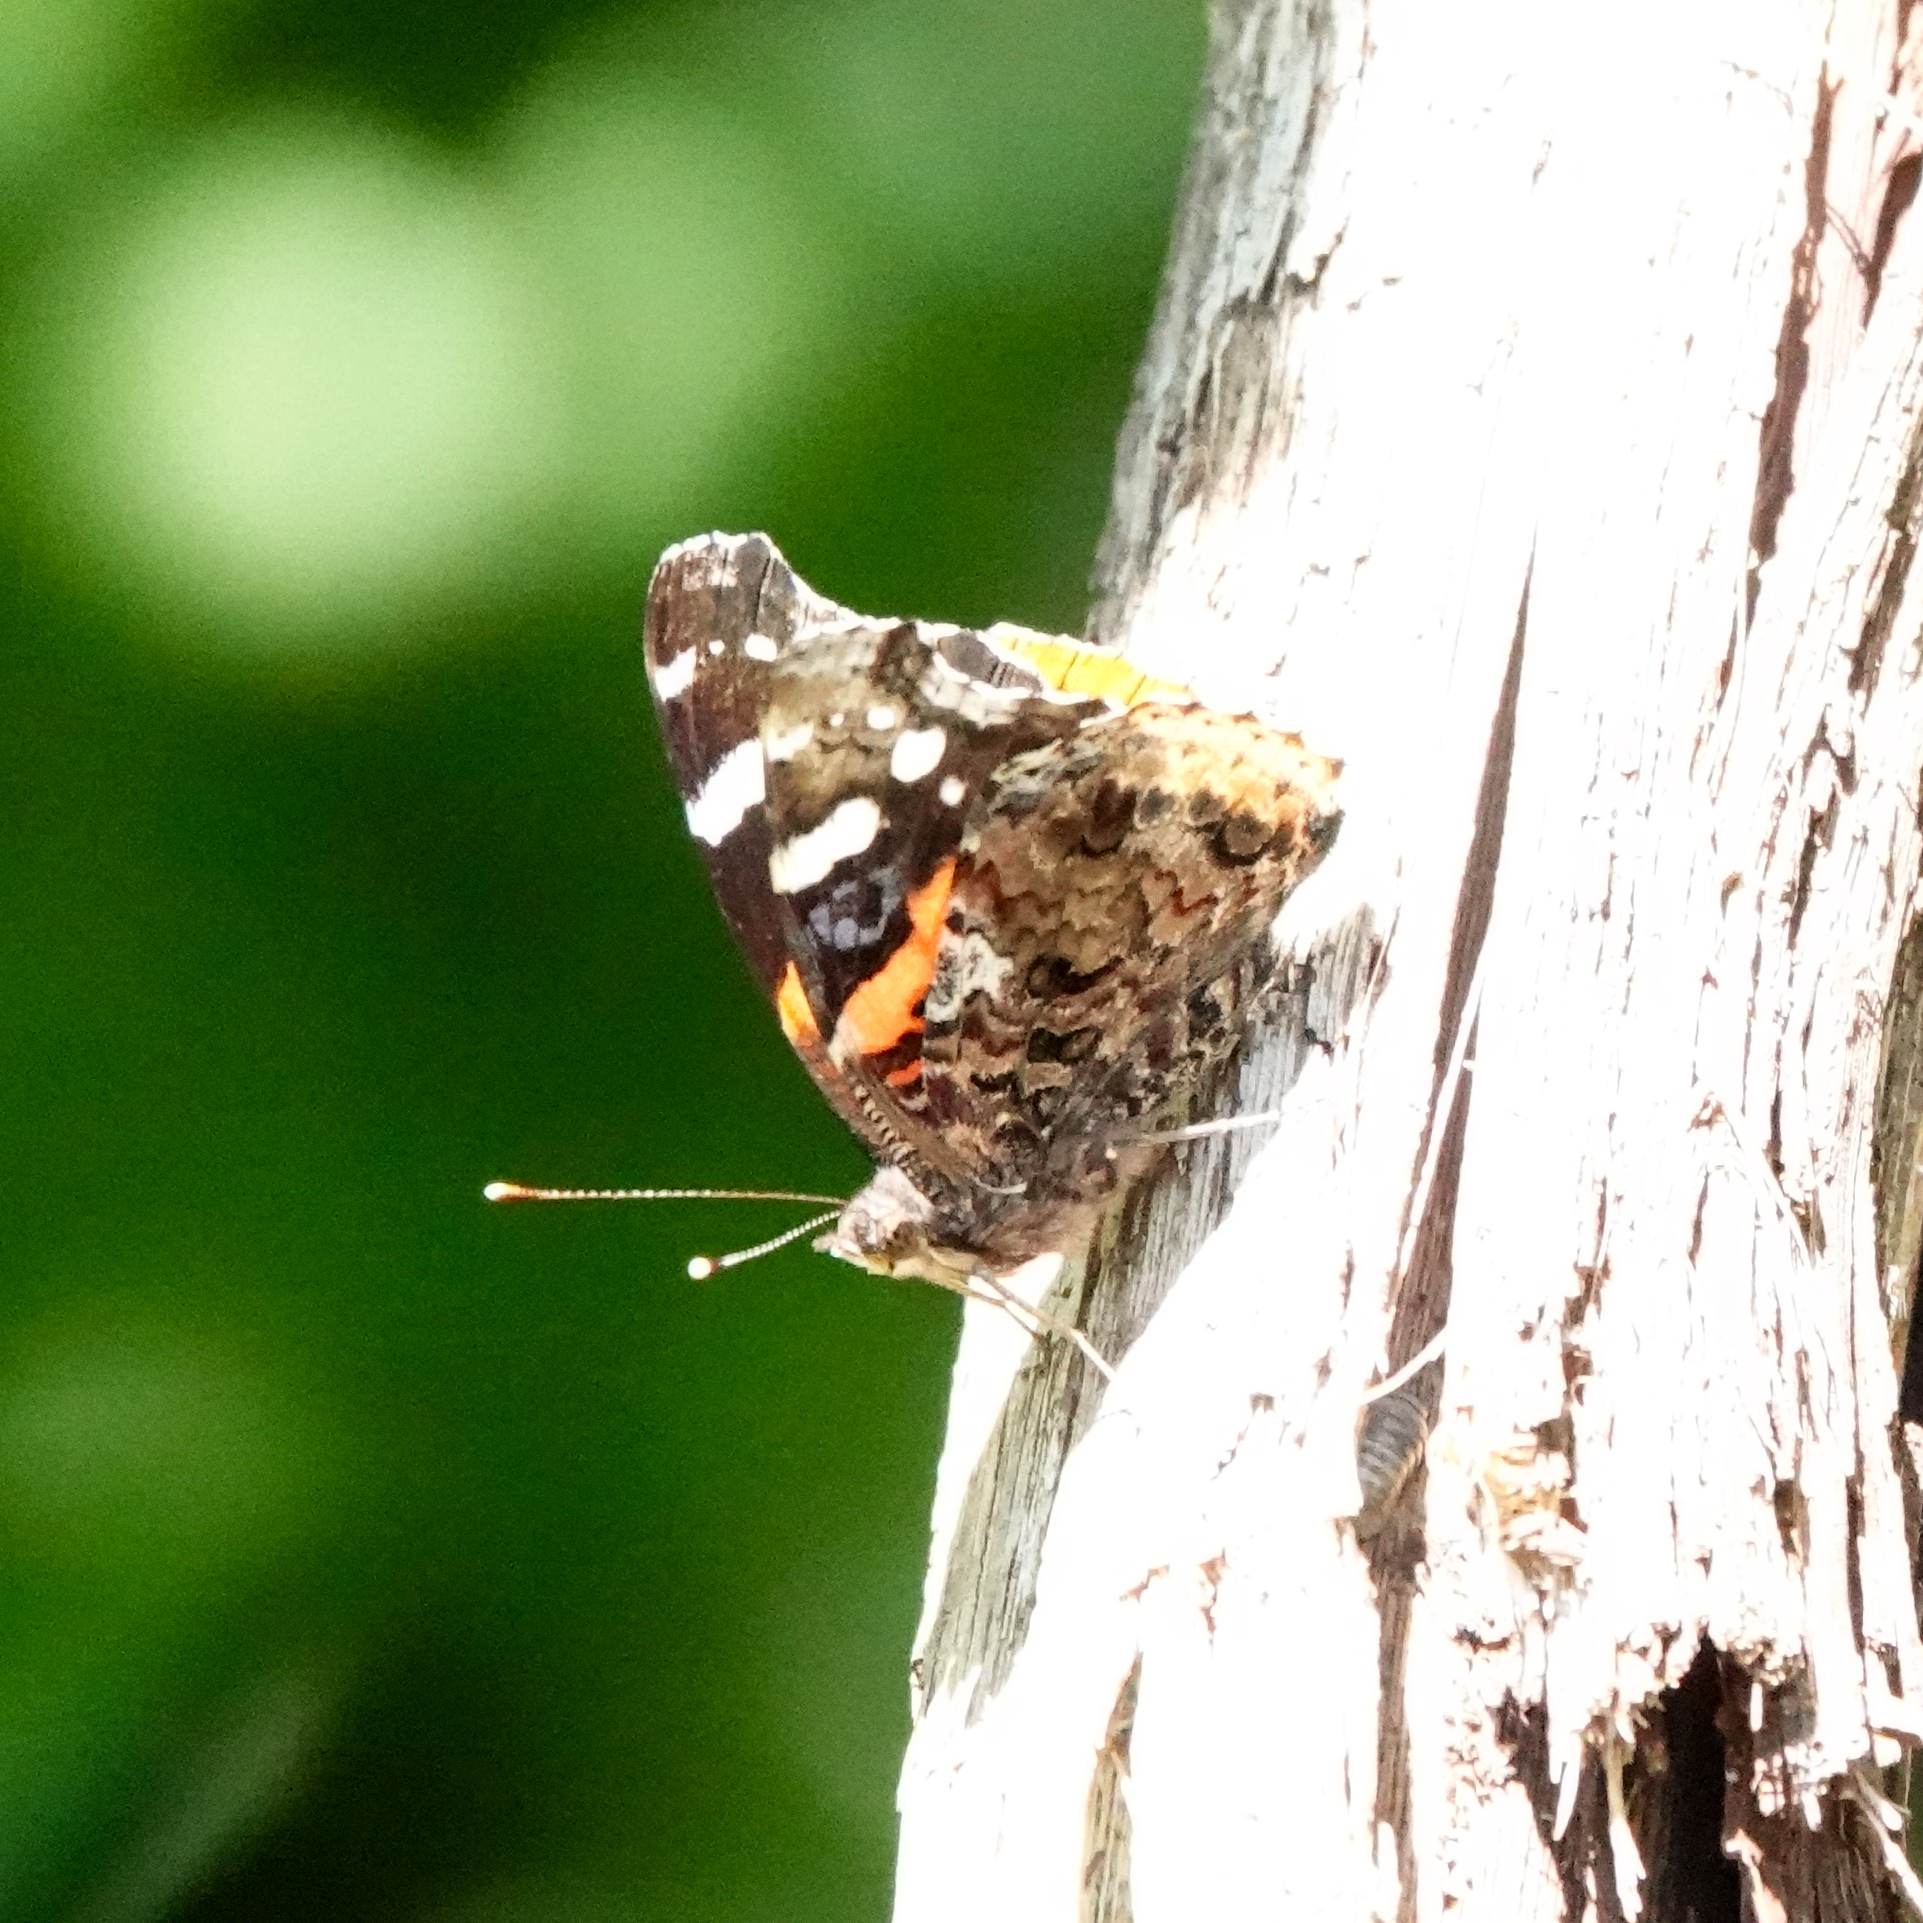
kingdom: Animalia
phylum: Arthropoda
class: Insecta
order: Lepidoptera
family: Nymphalidae
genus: Vanessa
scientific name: Vanessa atalanta
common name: Red admiral
